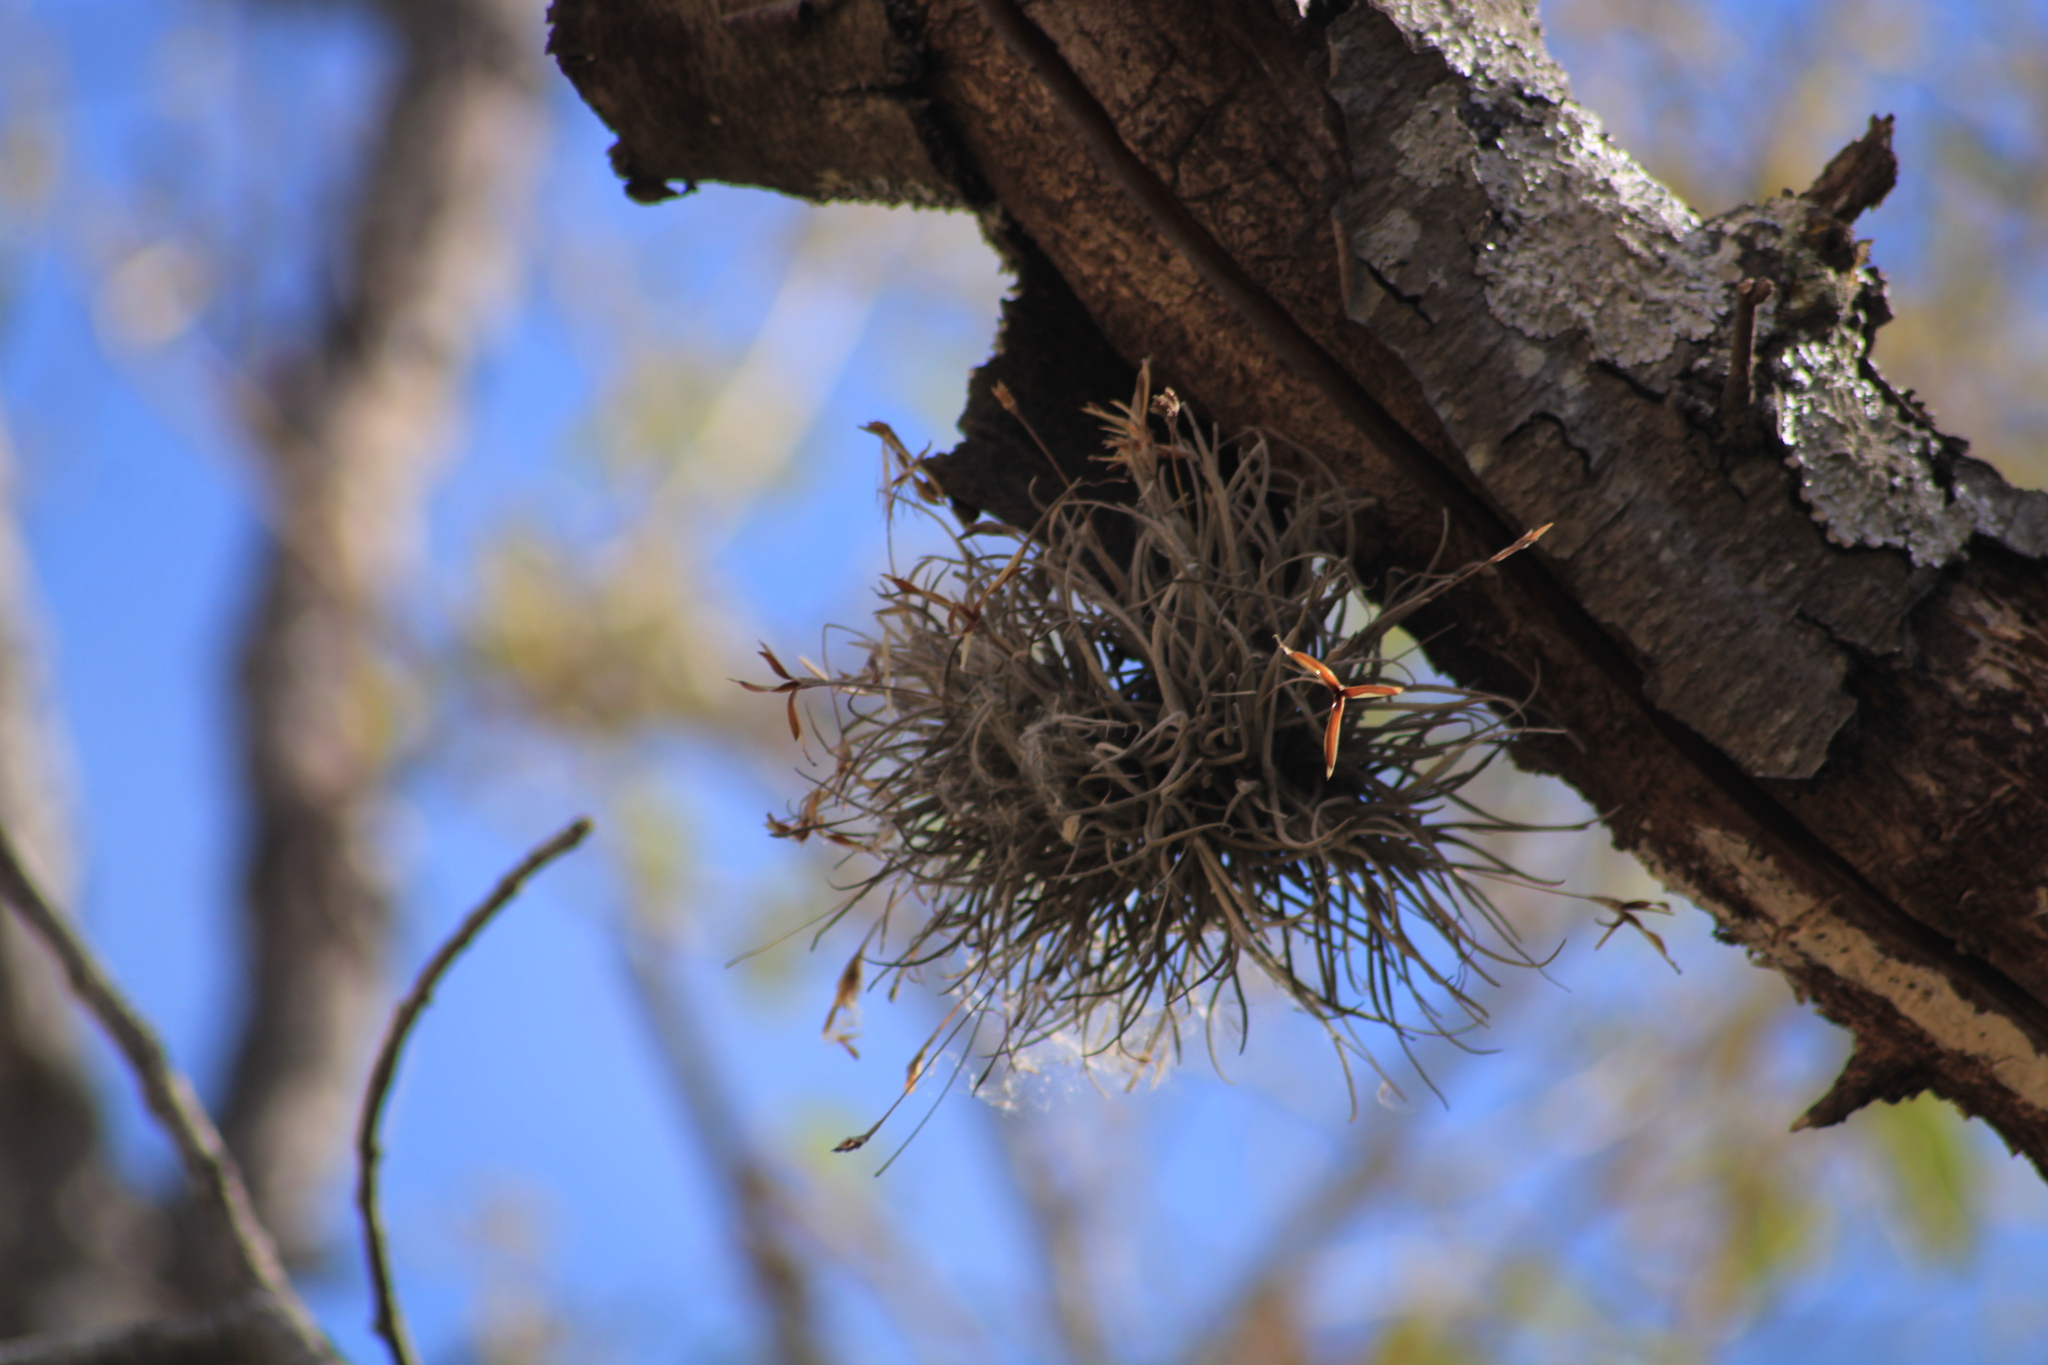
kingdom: Plantae
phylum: Tracheophyta
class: Liliopsida
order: Poales
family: Bromeliaceae
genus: Tillandsia
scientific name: Tillandsia recurvata
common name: Small ballmoss
